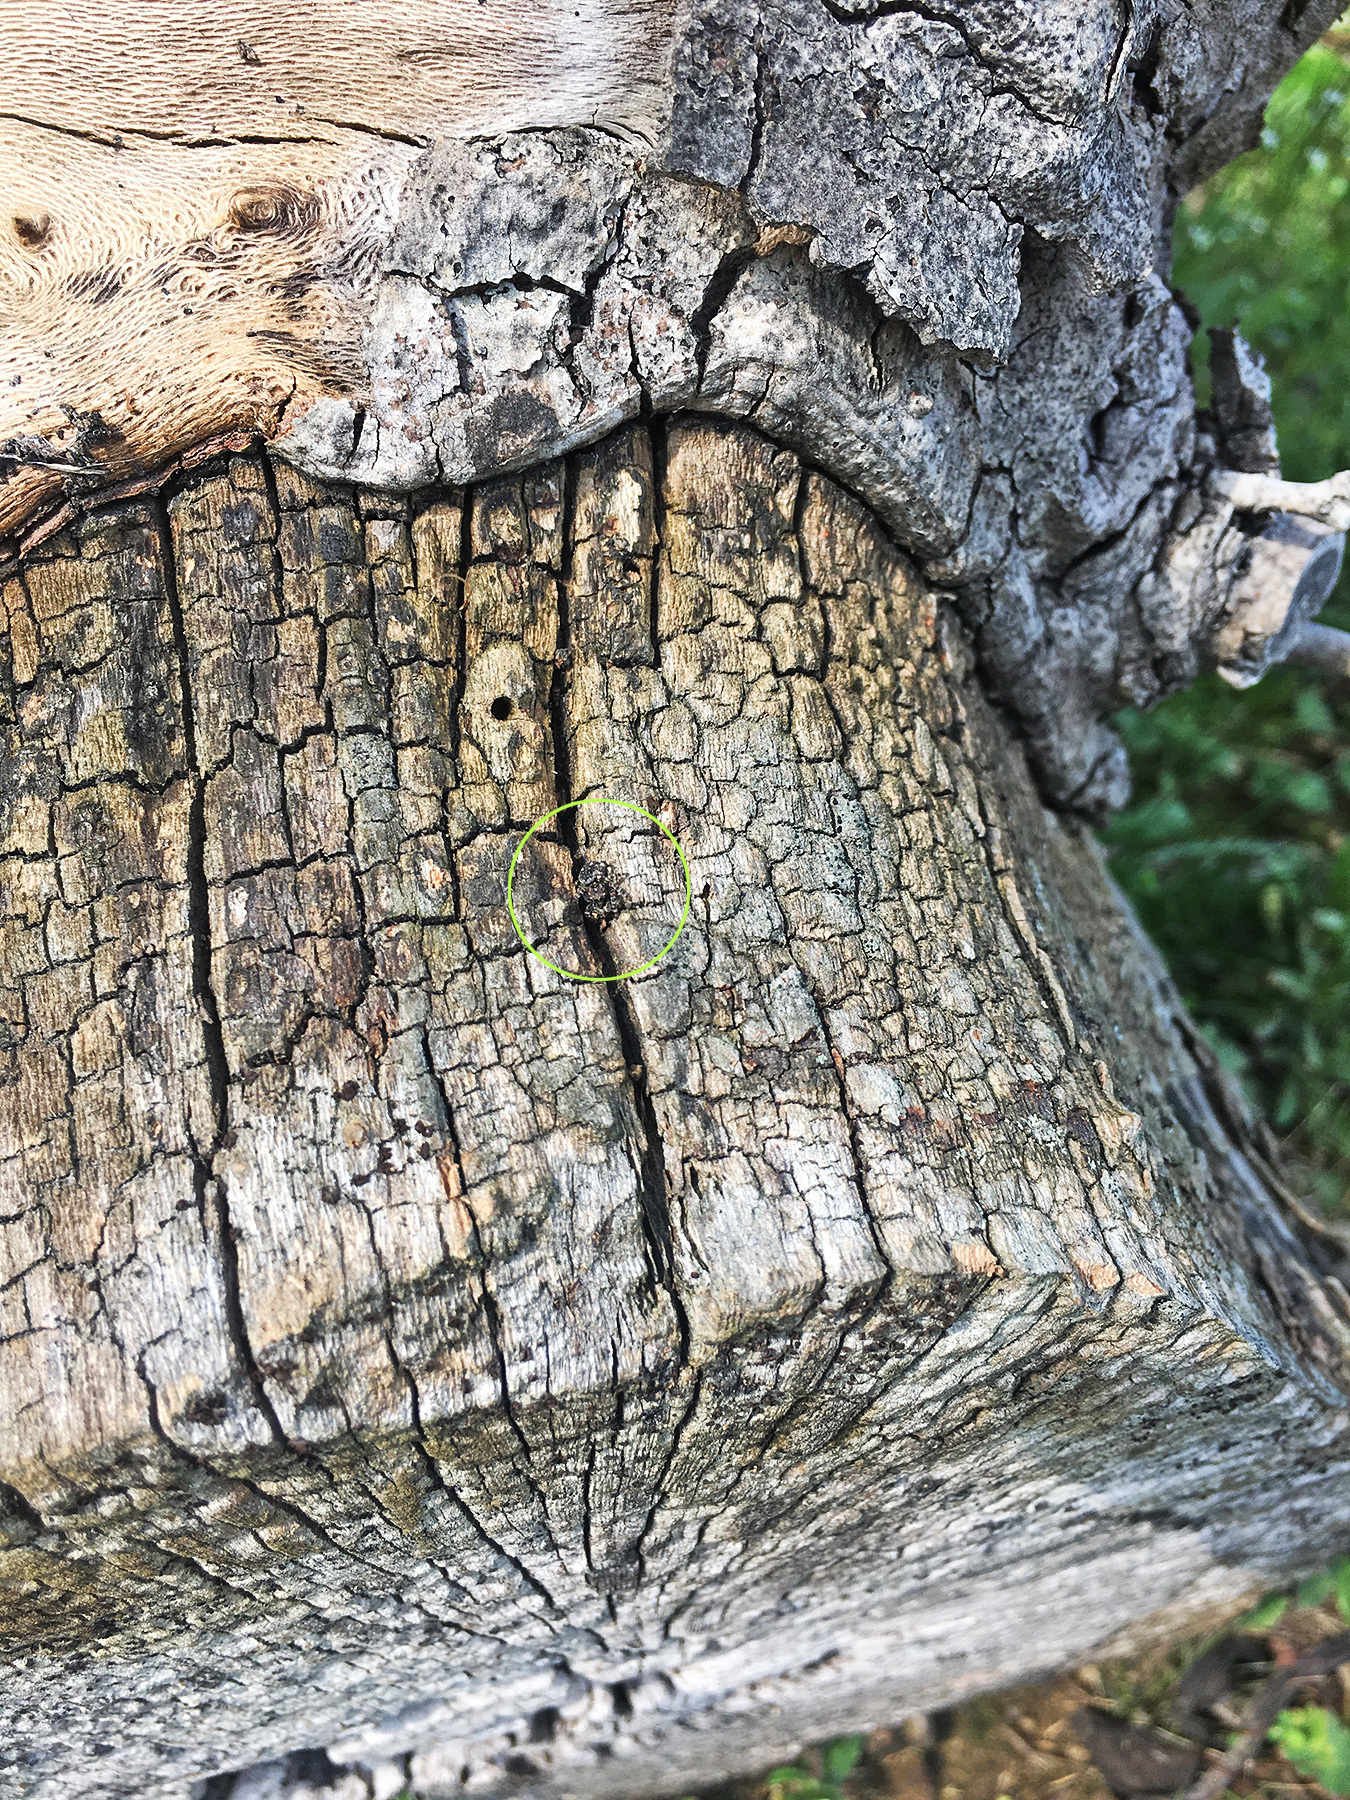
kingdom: Animalia
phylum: Arthropoda
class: Arachnida
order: Araneae
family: Salticidae
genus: Attulus
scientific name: Attulus pubescens
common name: Jumping spider
